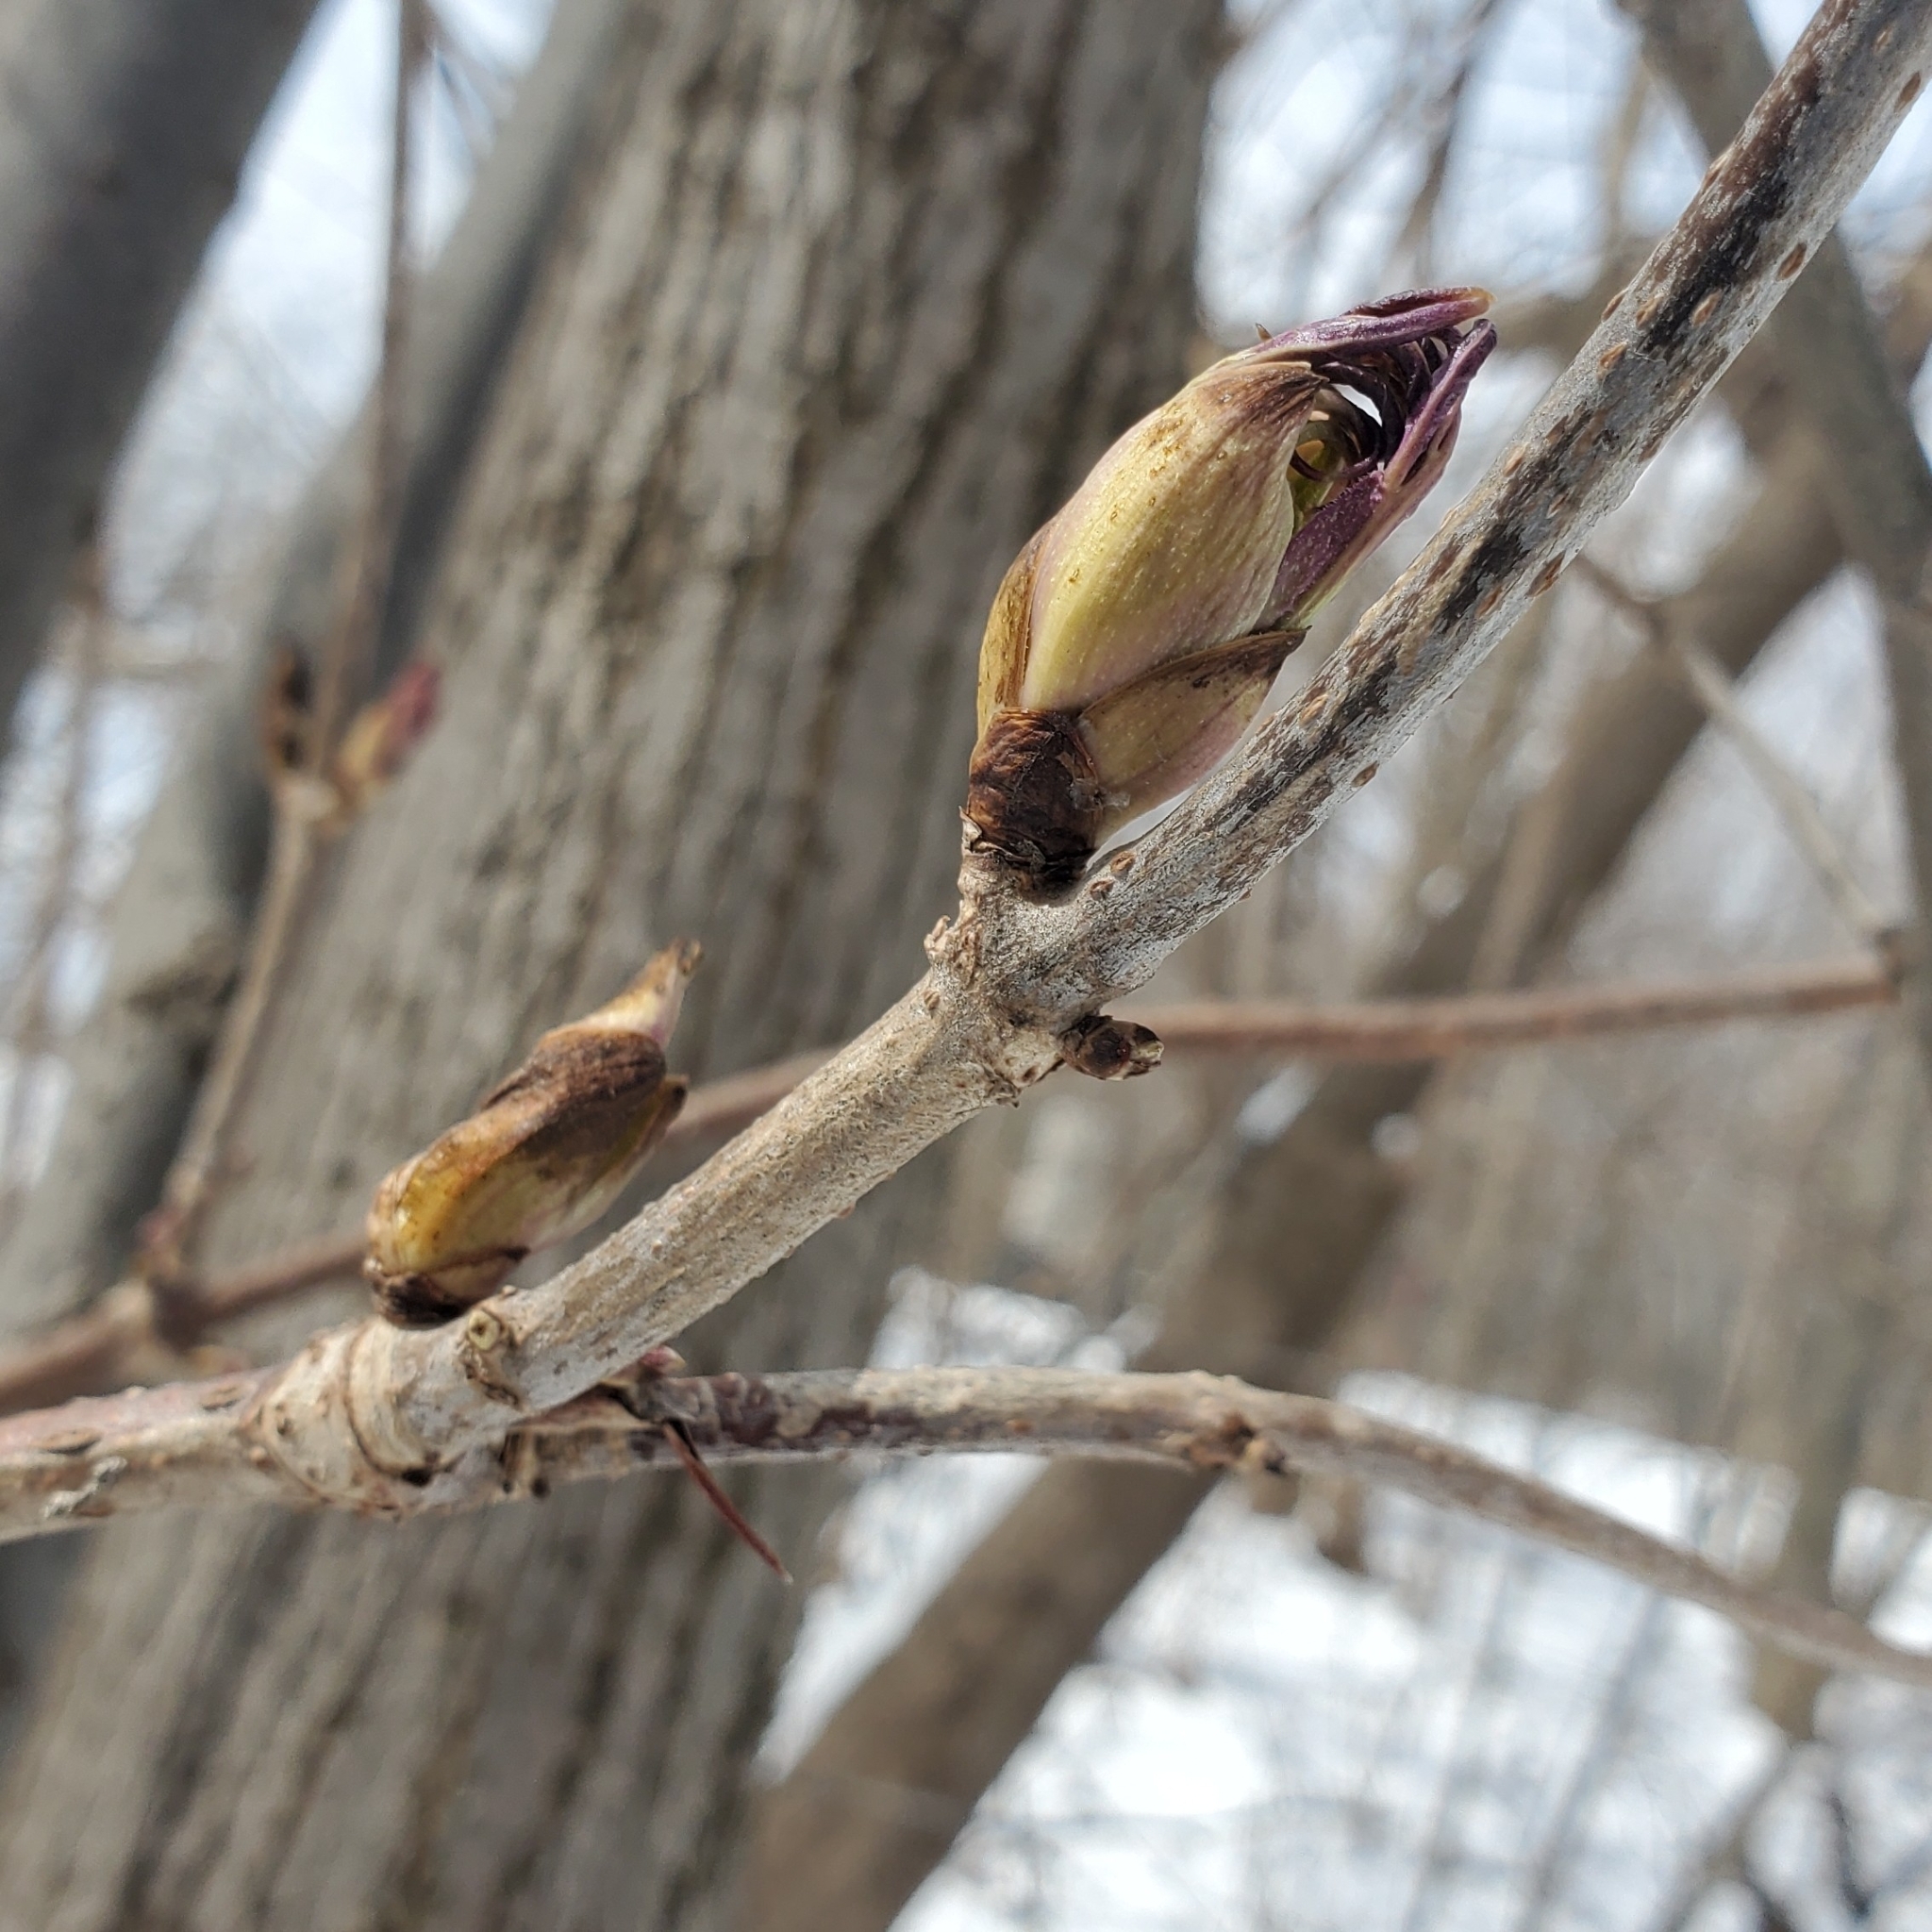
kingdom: Plantae
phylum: Tracheophyta
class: Magnoliopsida
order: Dipsacales
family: Viburnaceae
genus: Sambucus
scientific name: Sambucus racemosa
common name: Red-berried elder
